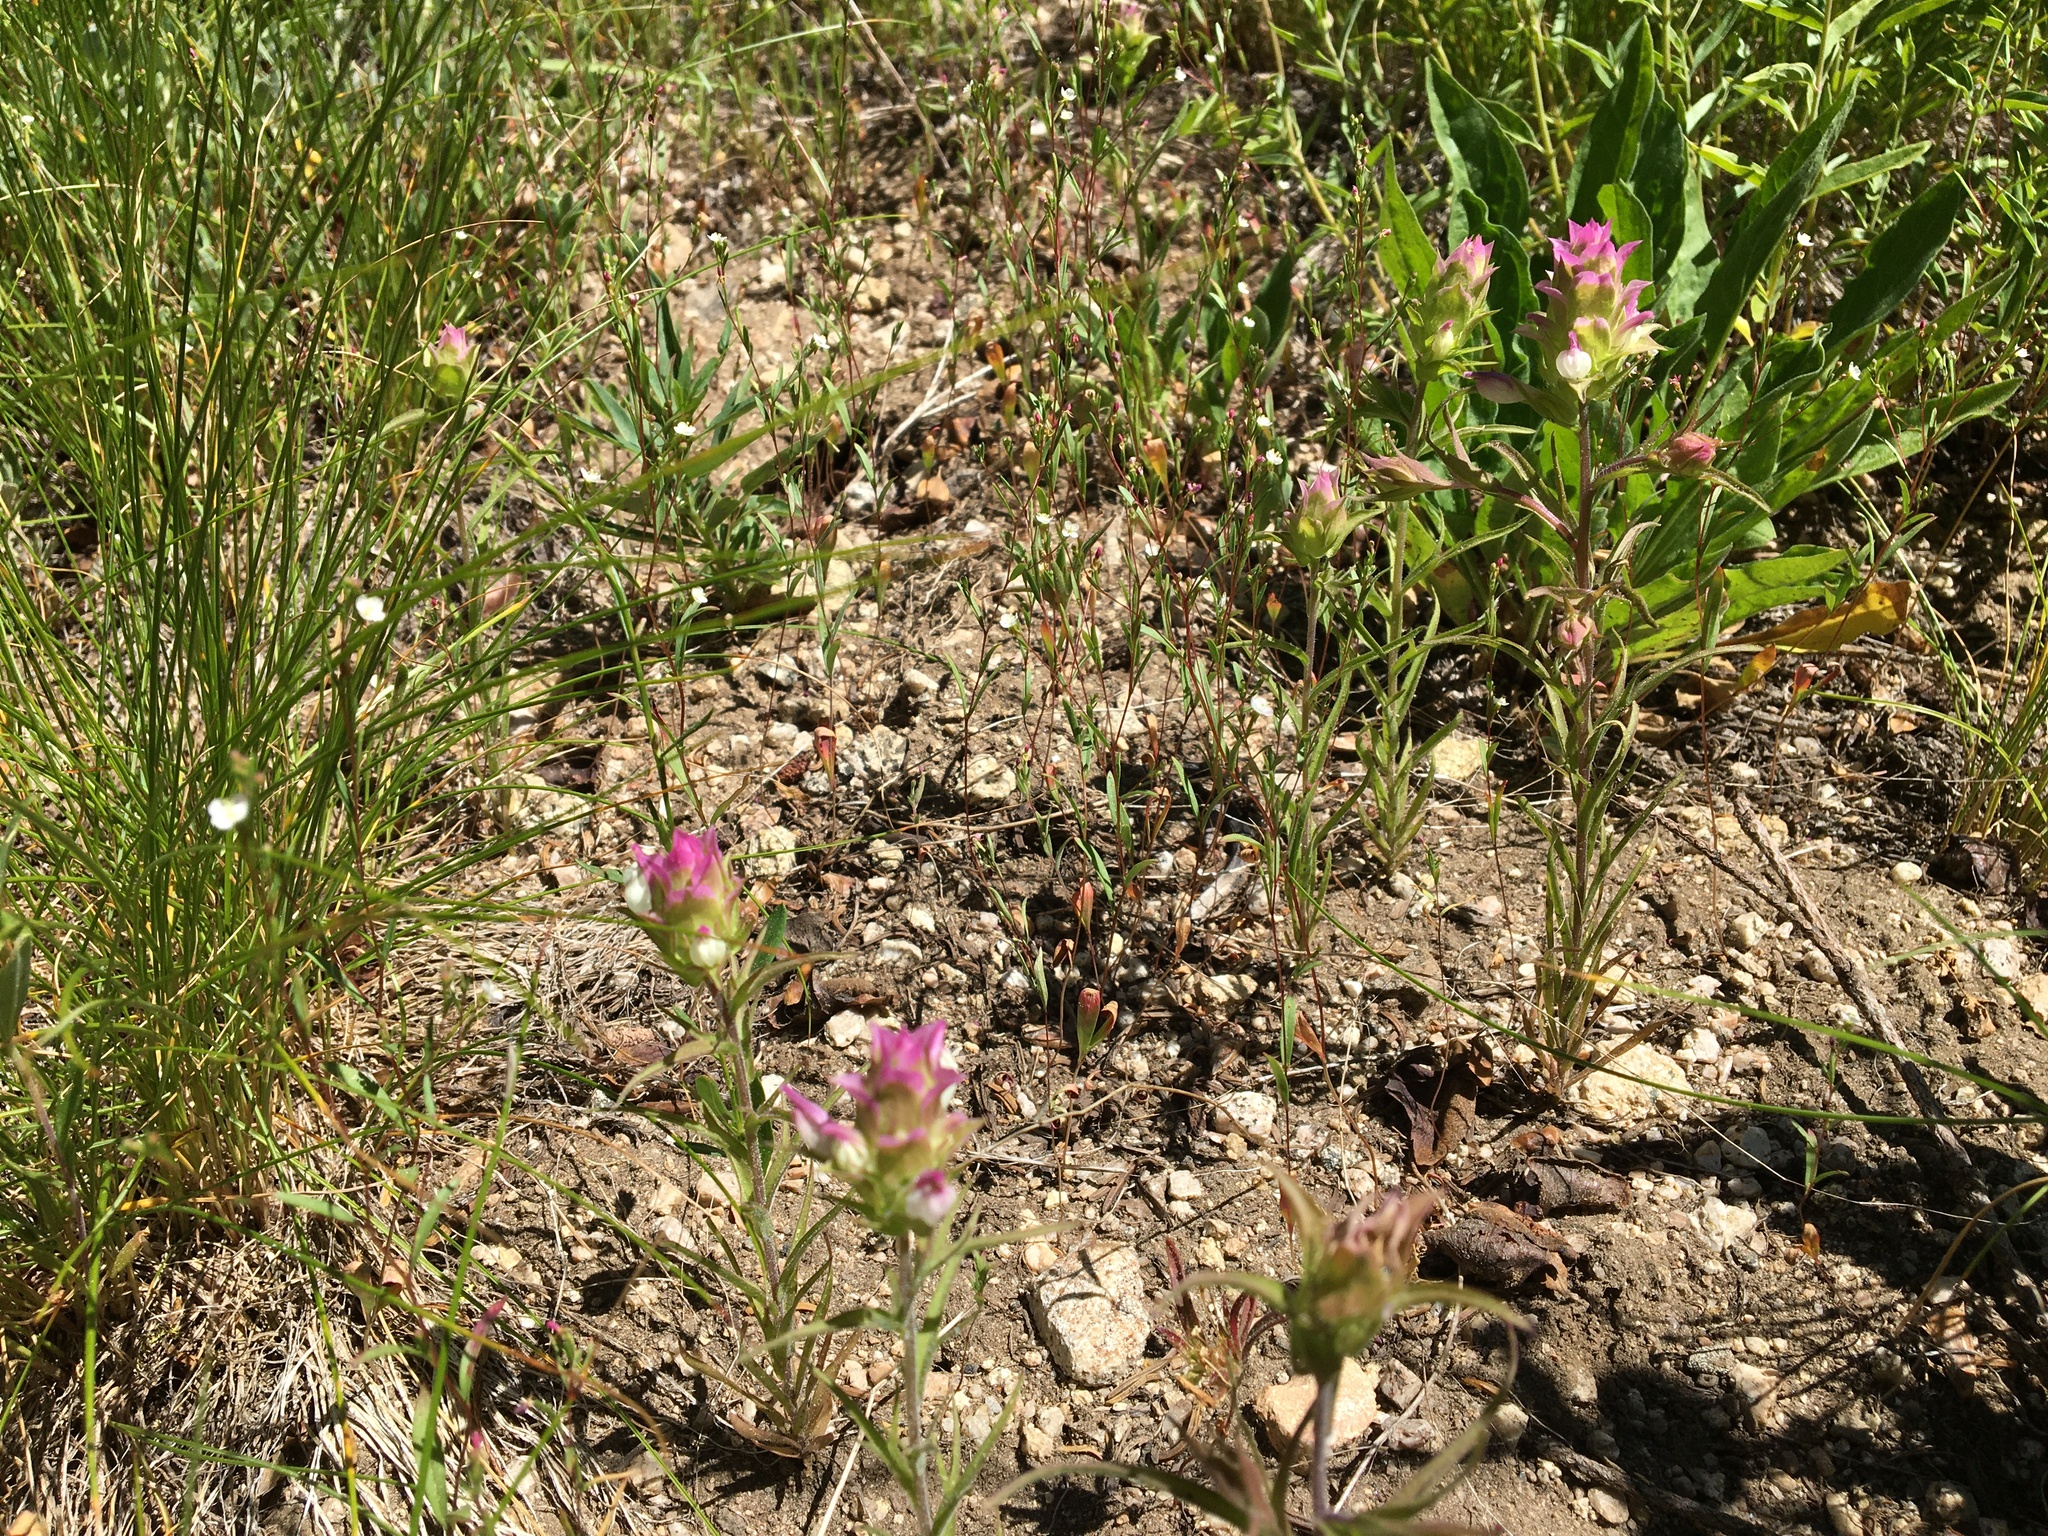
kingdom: Plantae
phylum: Tracheophyta
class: Magnoliopsida
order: Lamiales
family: Orobanchaceae
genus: Orthocarpus
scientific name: Orthocarpus cuspidatus
